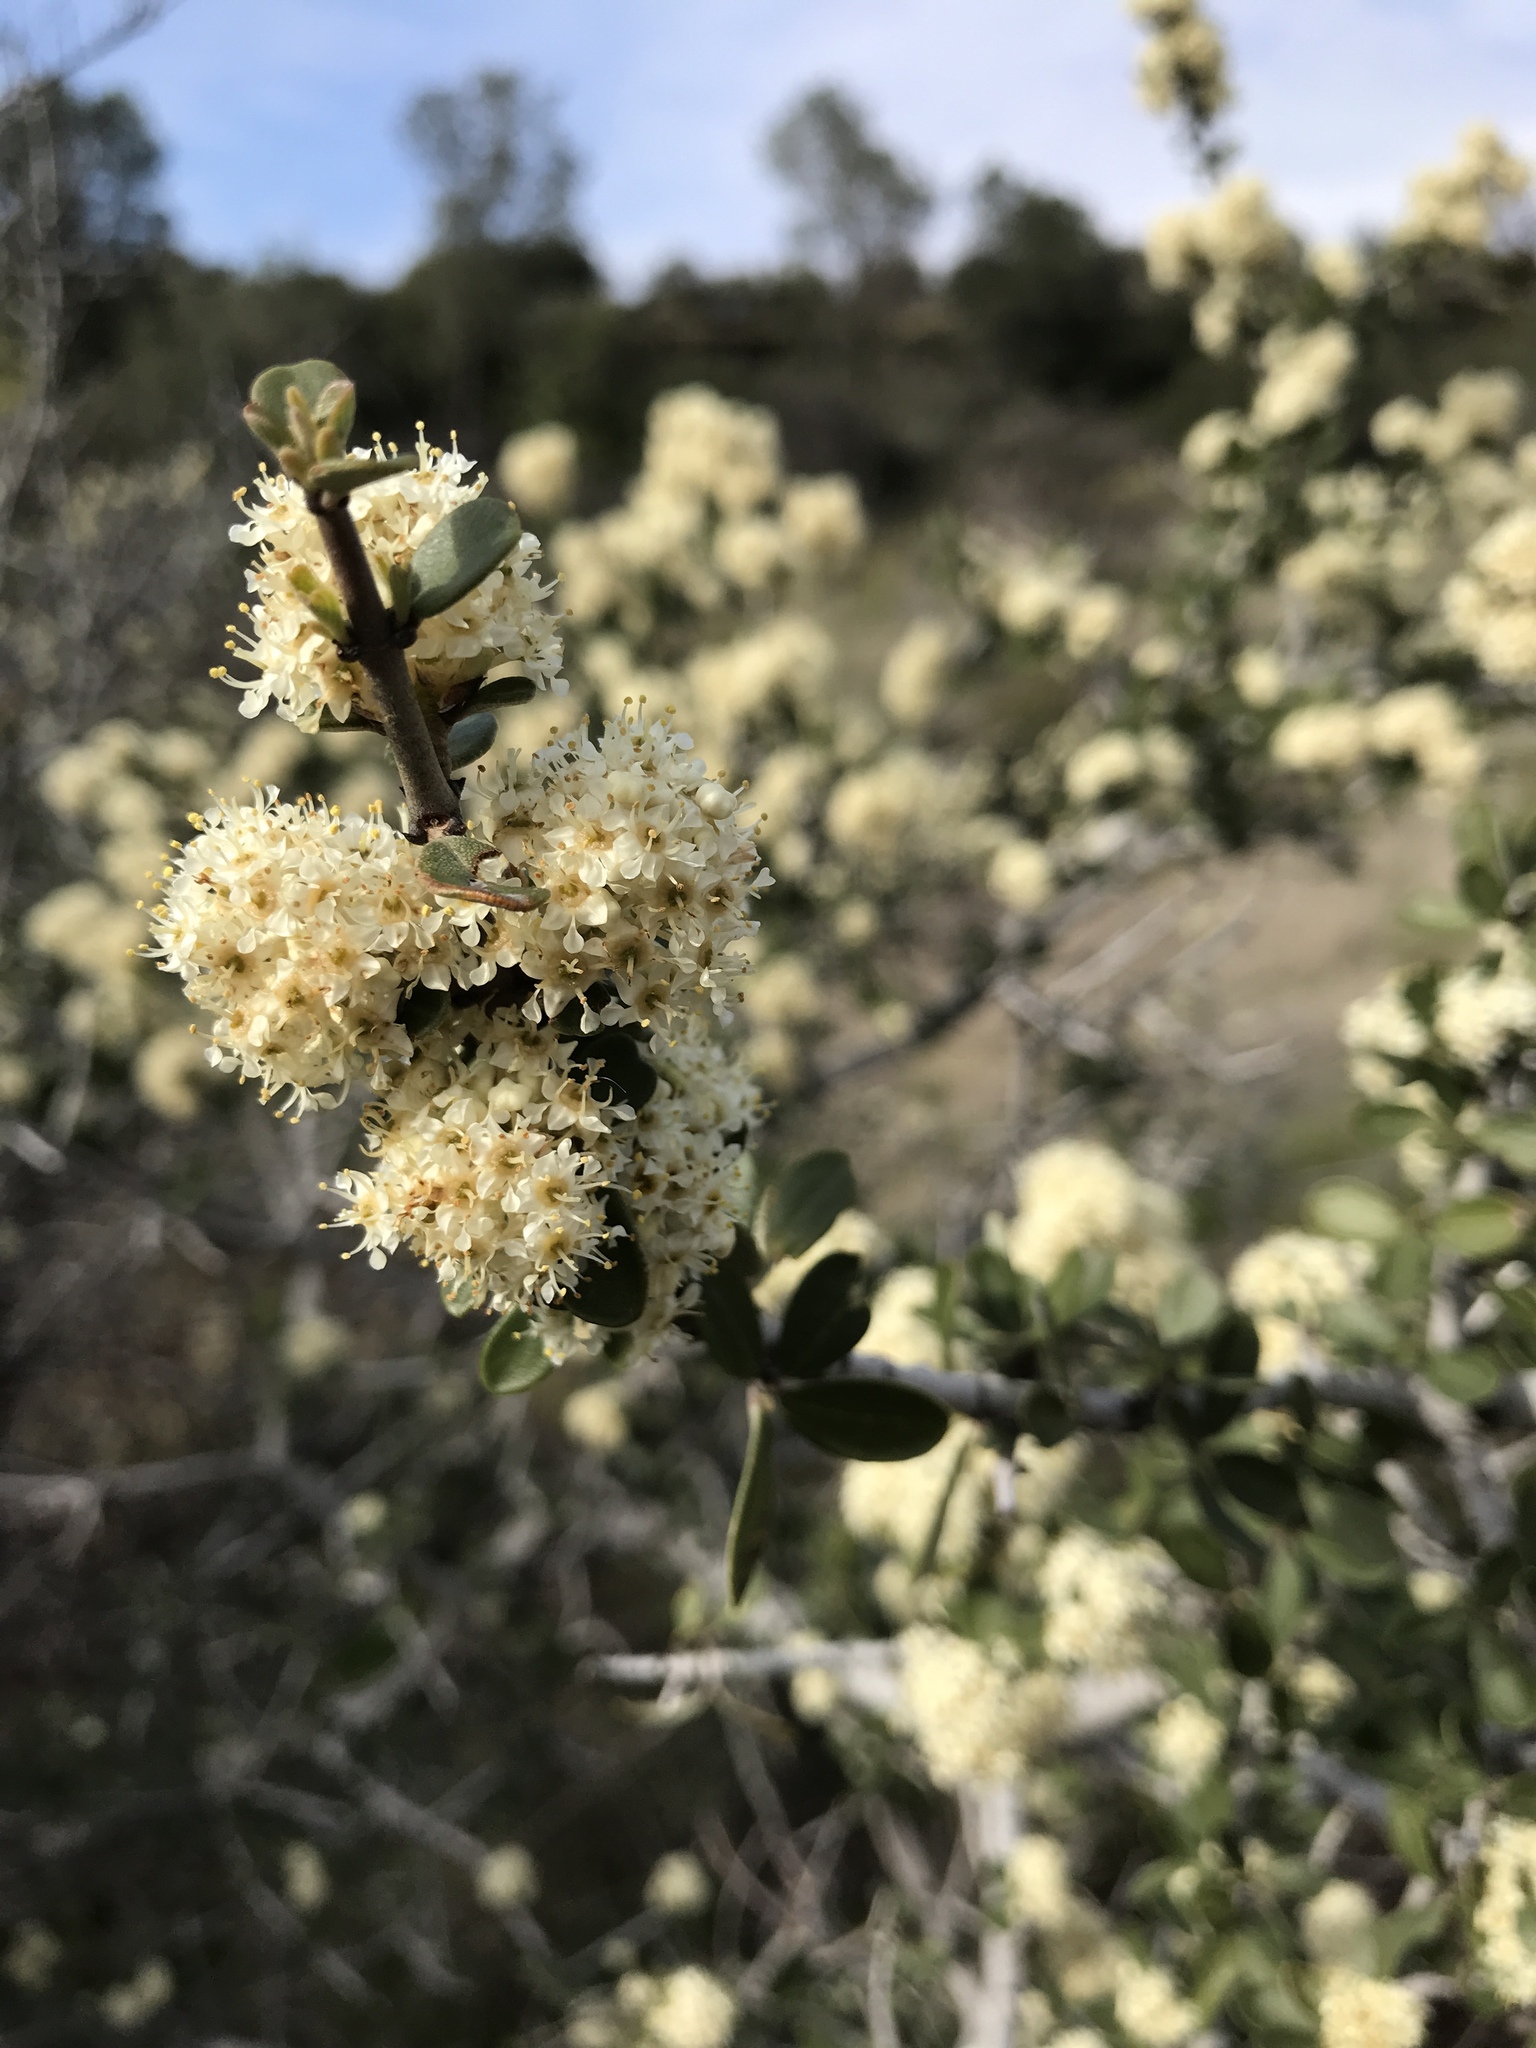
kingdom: Plantae
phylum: Tracheophyta
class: Magnoliopsida
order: Rosales
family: Rhamnaceae
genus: Ceanothus
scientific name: Ceanothus cuneatus
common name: Cuneate ceanothus
